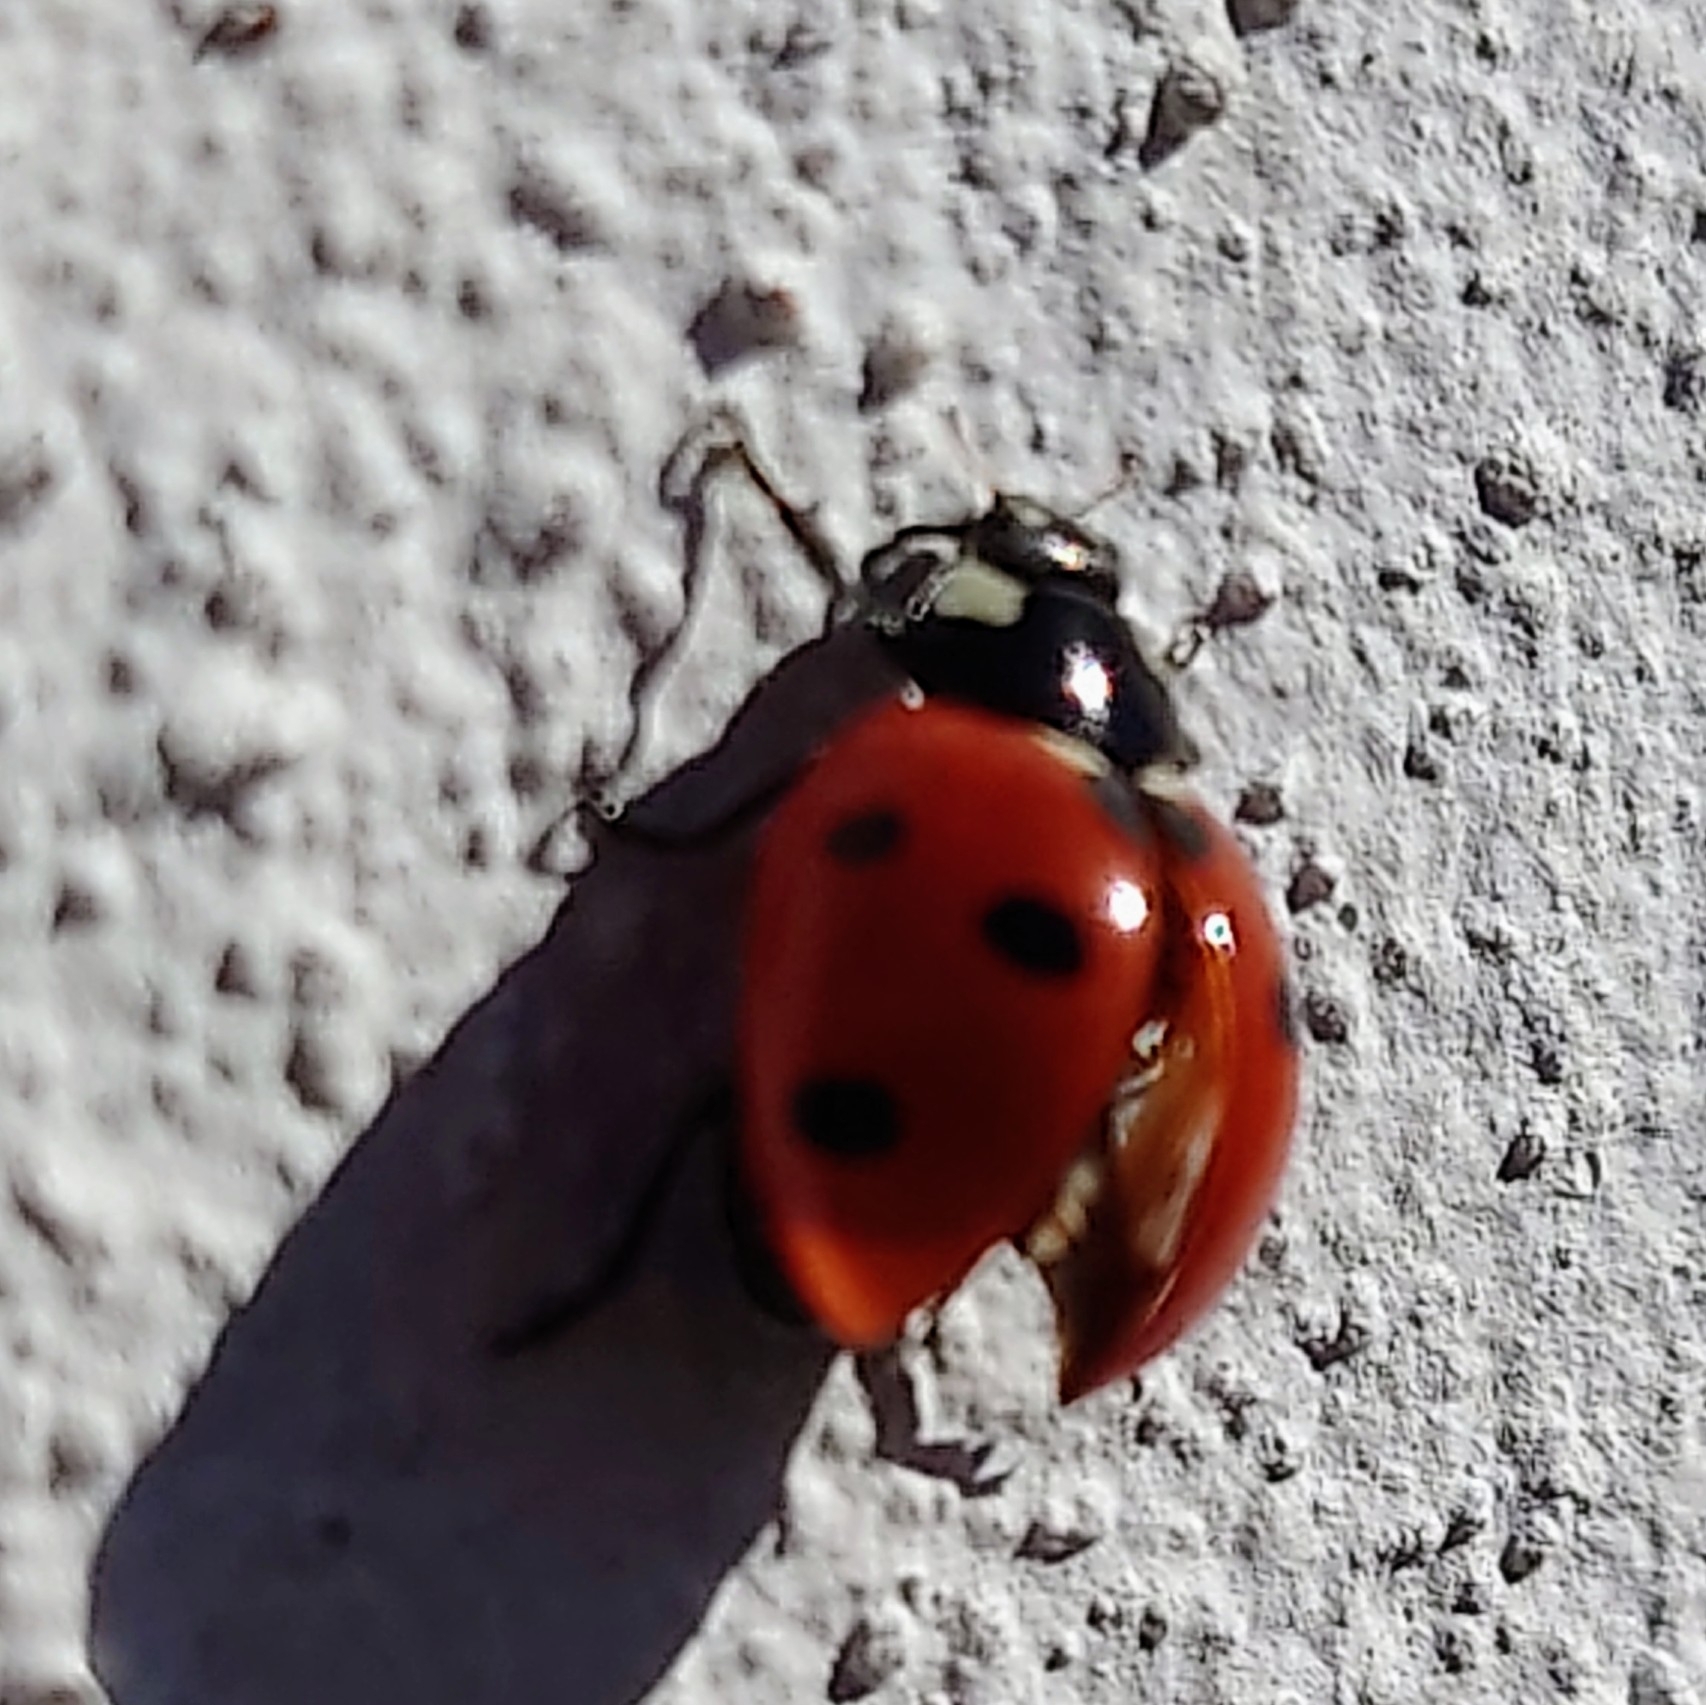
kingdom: Animalia
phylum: Arthropoda
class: Insecta
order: Coleoptera
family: Coccinellidae
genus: Coccinella
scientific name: Coccinella septempunctata
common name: Sevenspotted lady beetle
